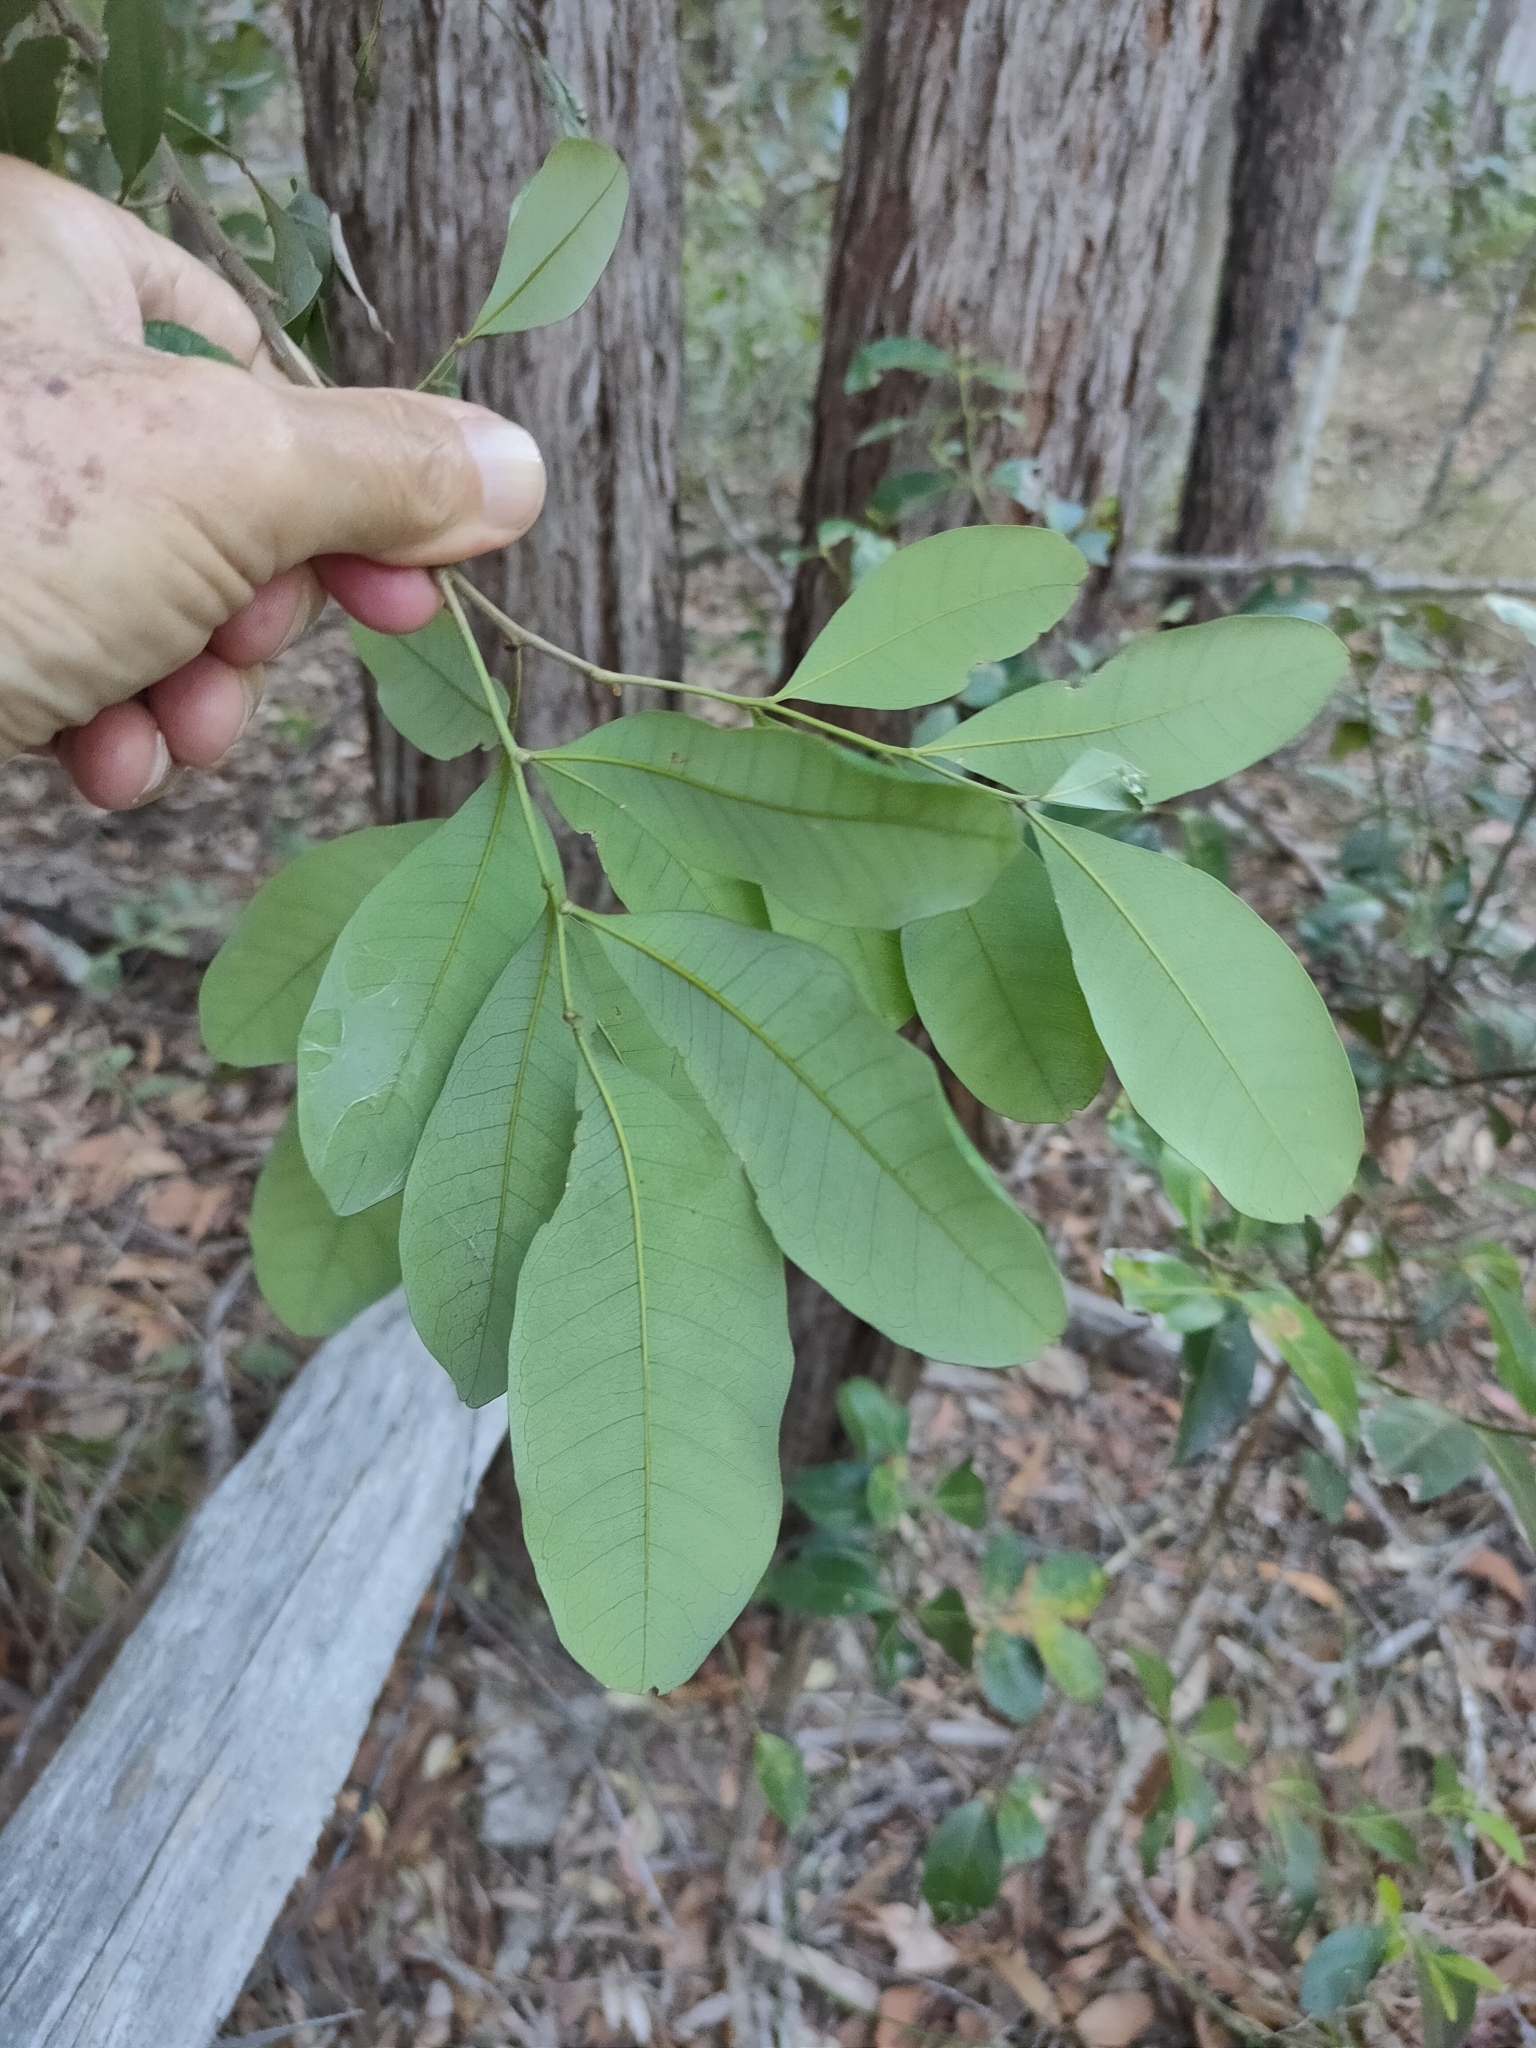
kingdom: Plantae
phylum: Tracheophyta
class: Magnoliopsida
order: Sapindales
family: Sapindaceae
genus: Guioa
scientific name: Guioa semiglauca
